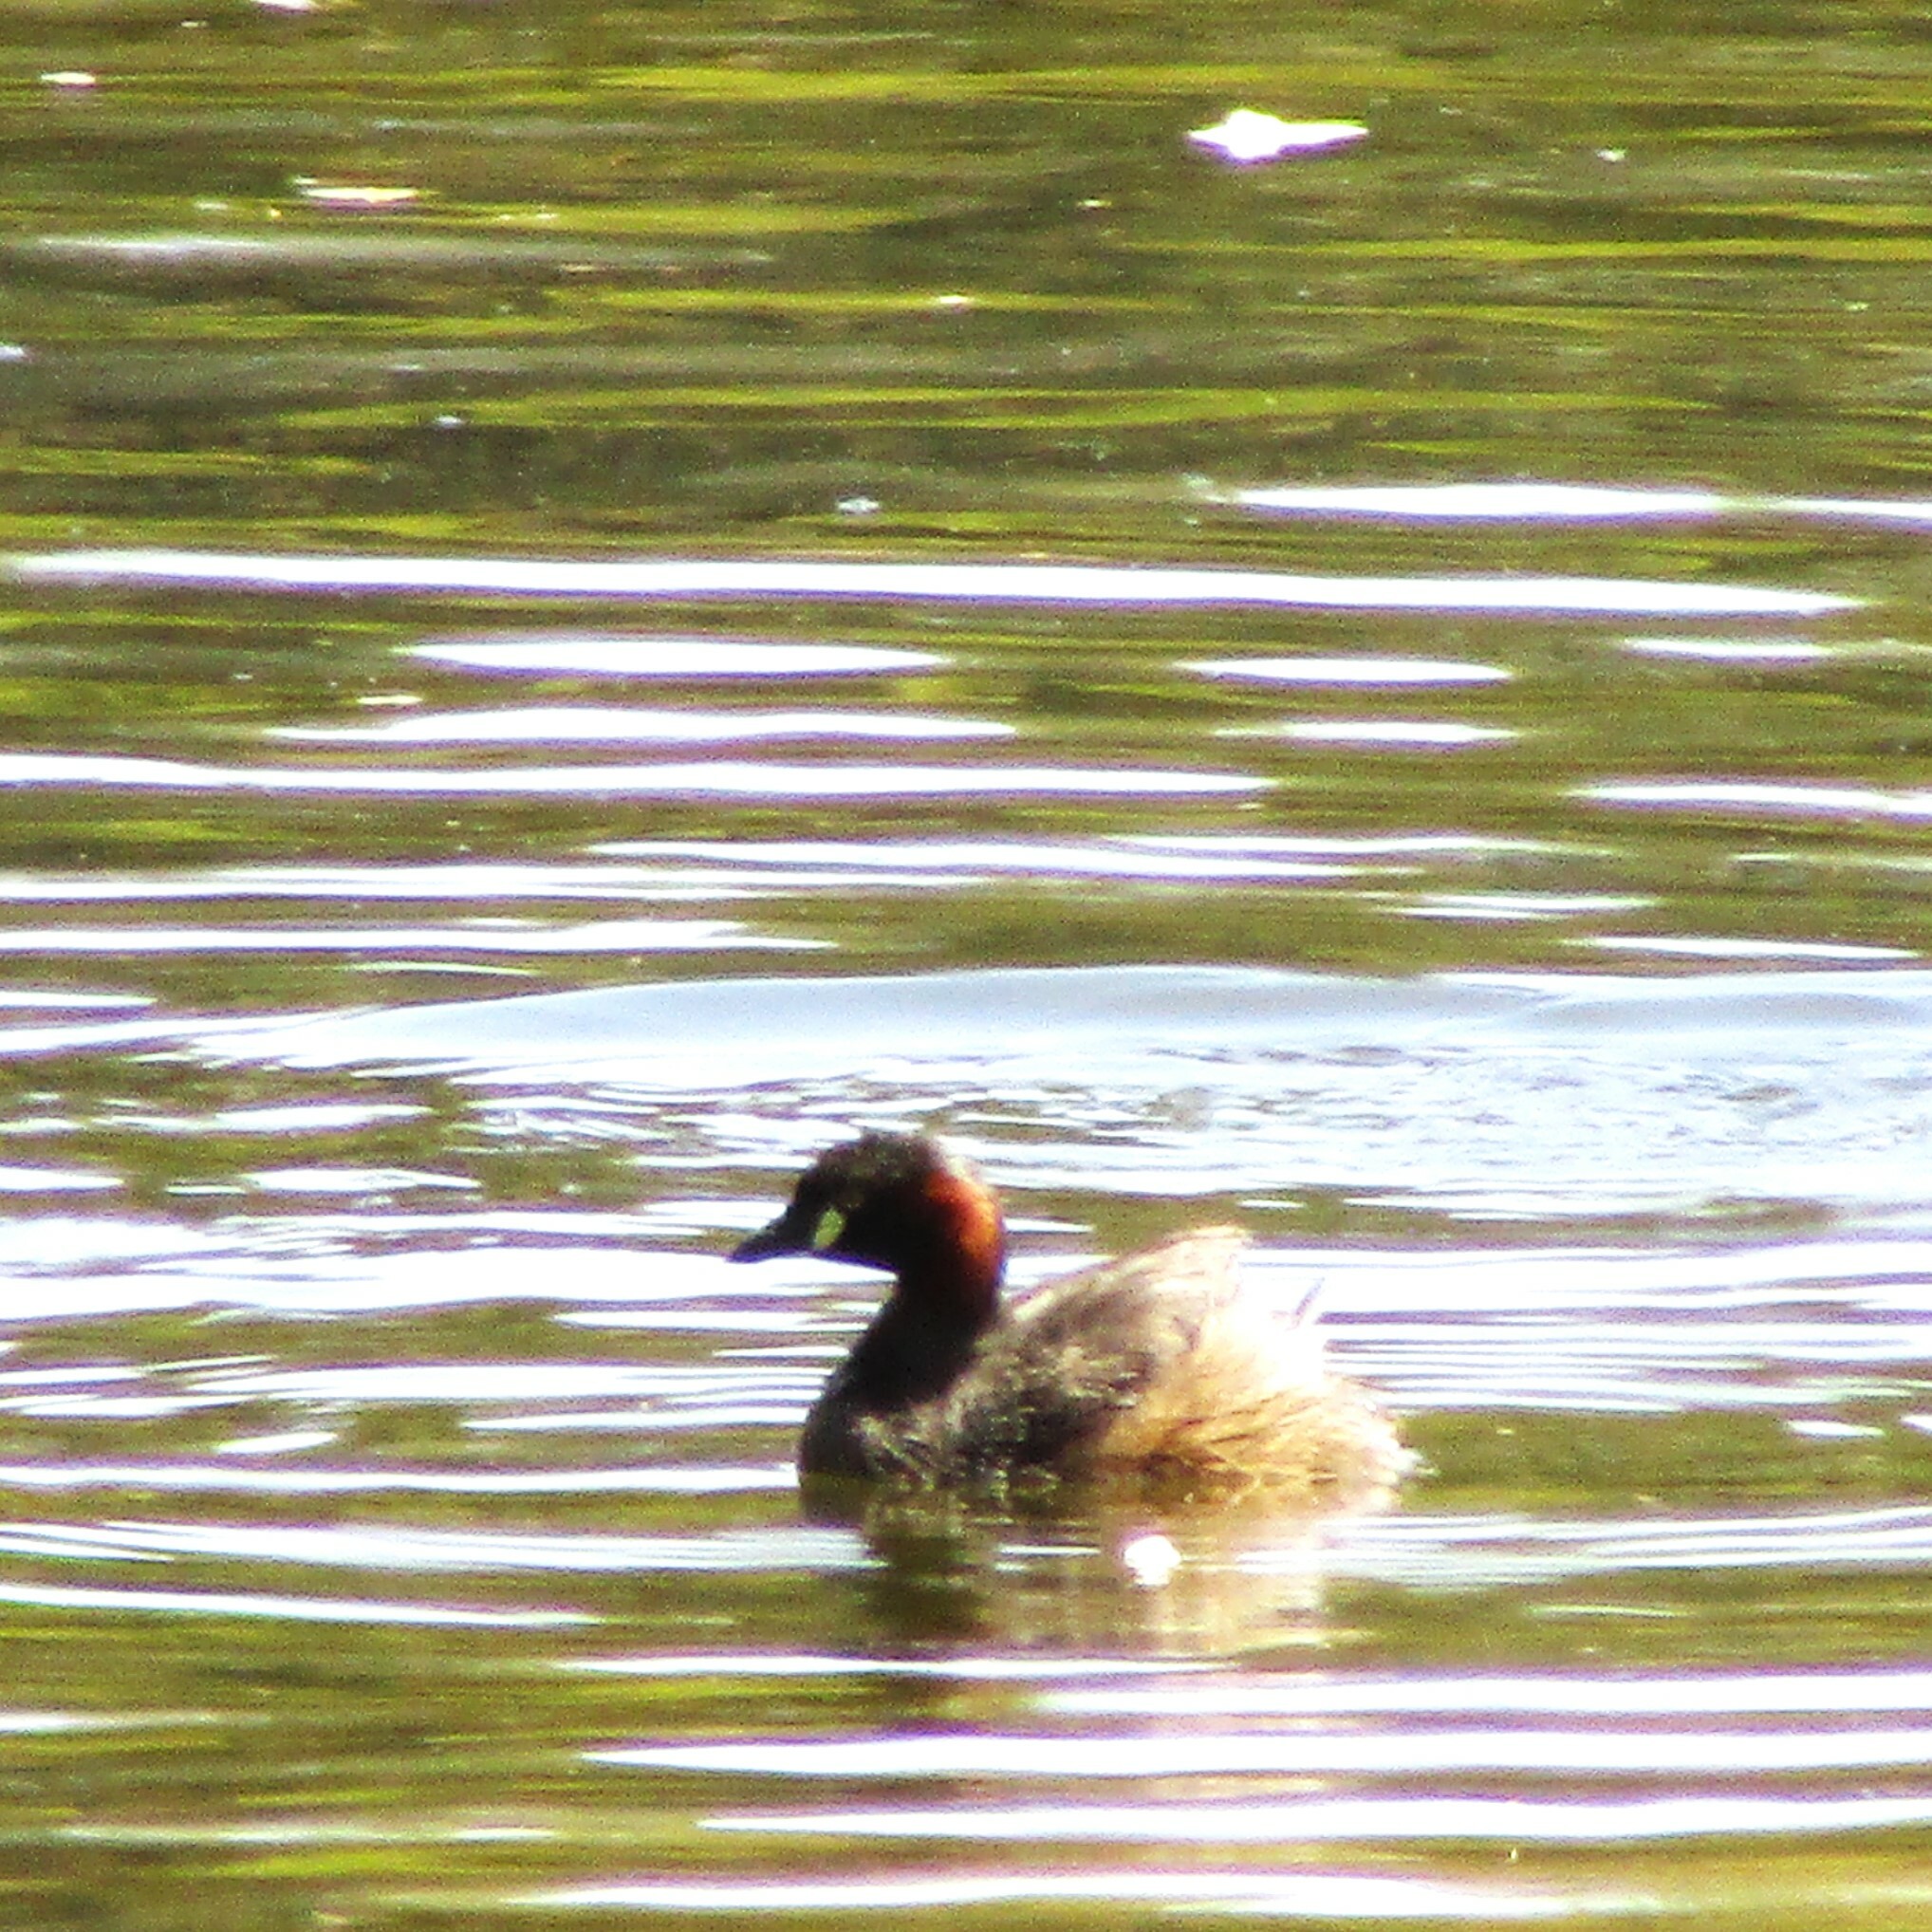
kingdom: Animalia
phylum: Chordata
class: Aves
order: Podicipediformes
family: Podicipedidae
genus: Tachybaptus
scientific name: Tachybaptus novaehollandiae
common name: Australasian grebe
